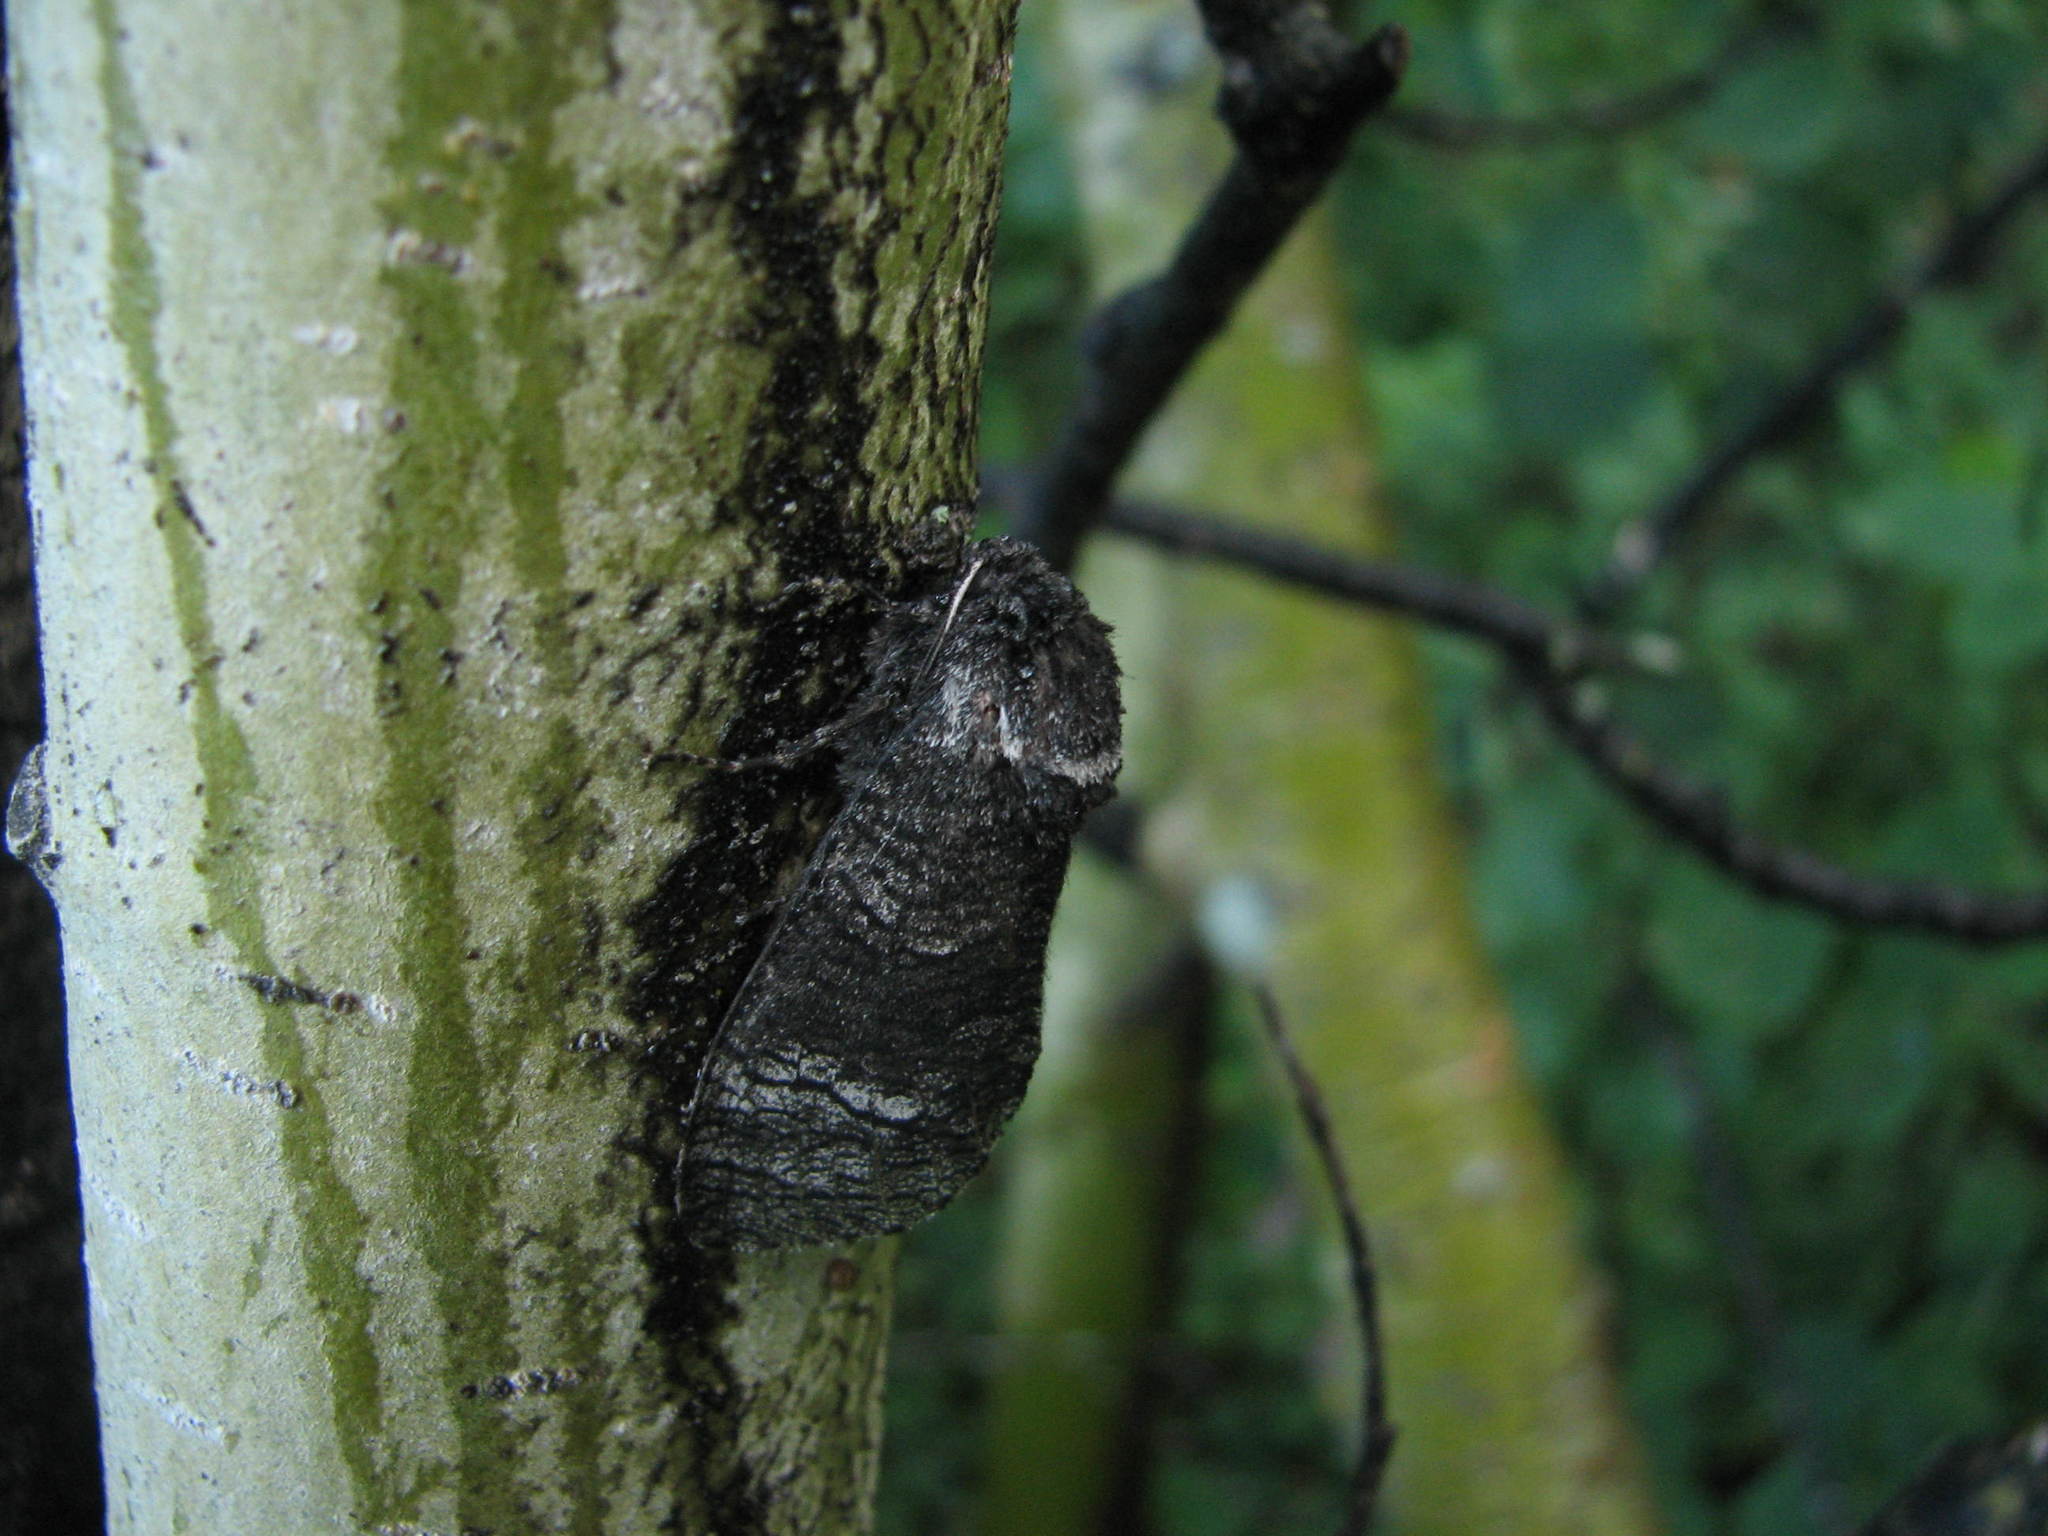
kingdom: Animalia
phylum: Arthropoda
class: Insecta
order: Lepidoptera
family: Cossidae
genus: Acossus
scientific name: Acossus centerensis
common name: Poplar carpenterworm moth
